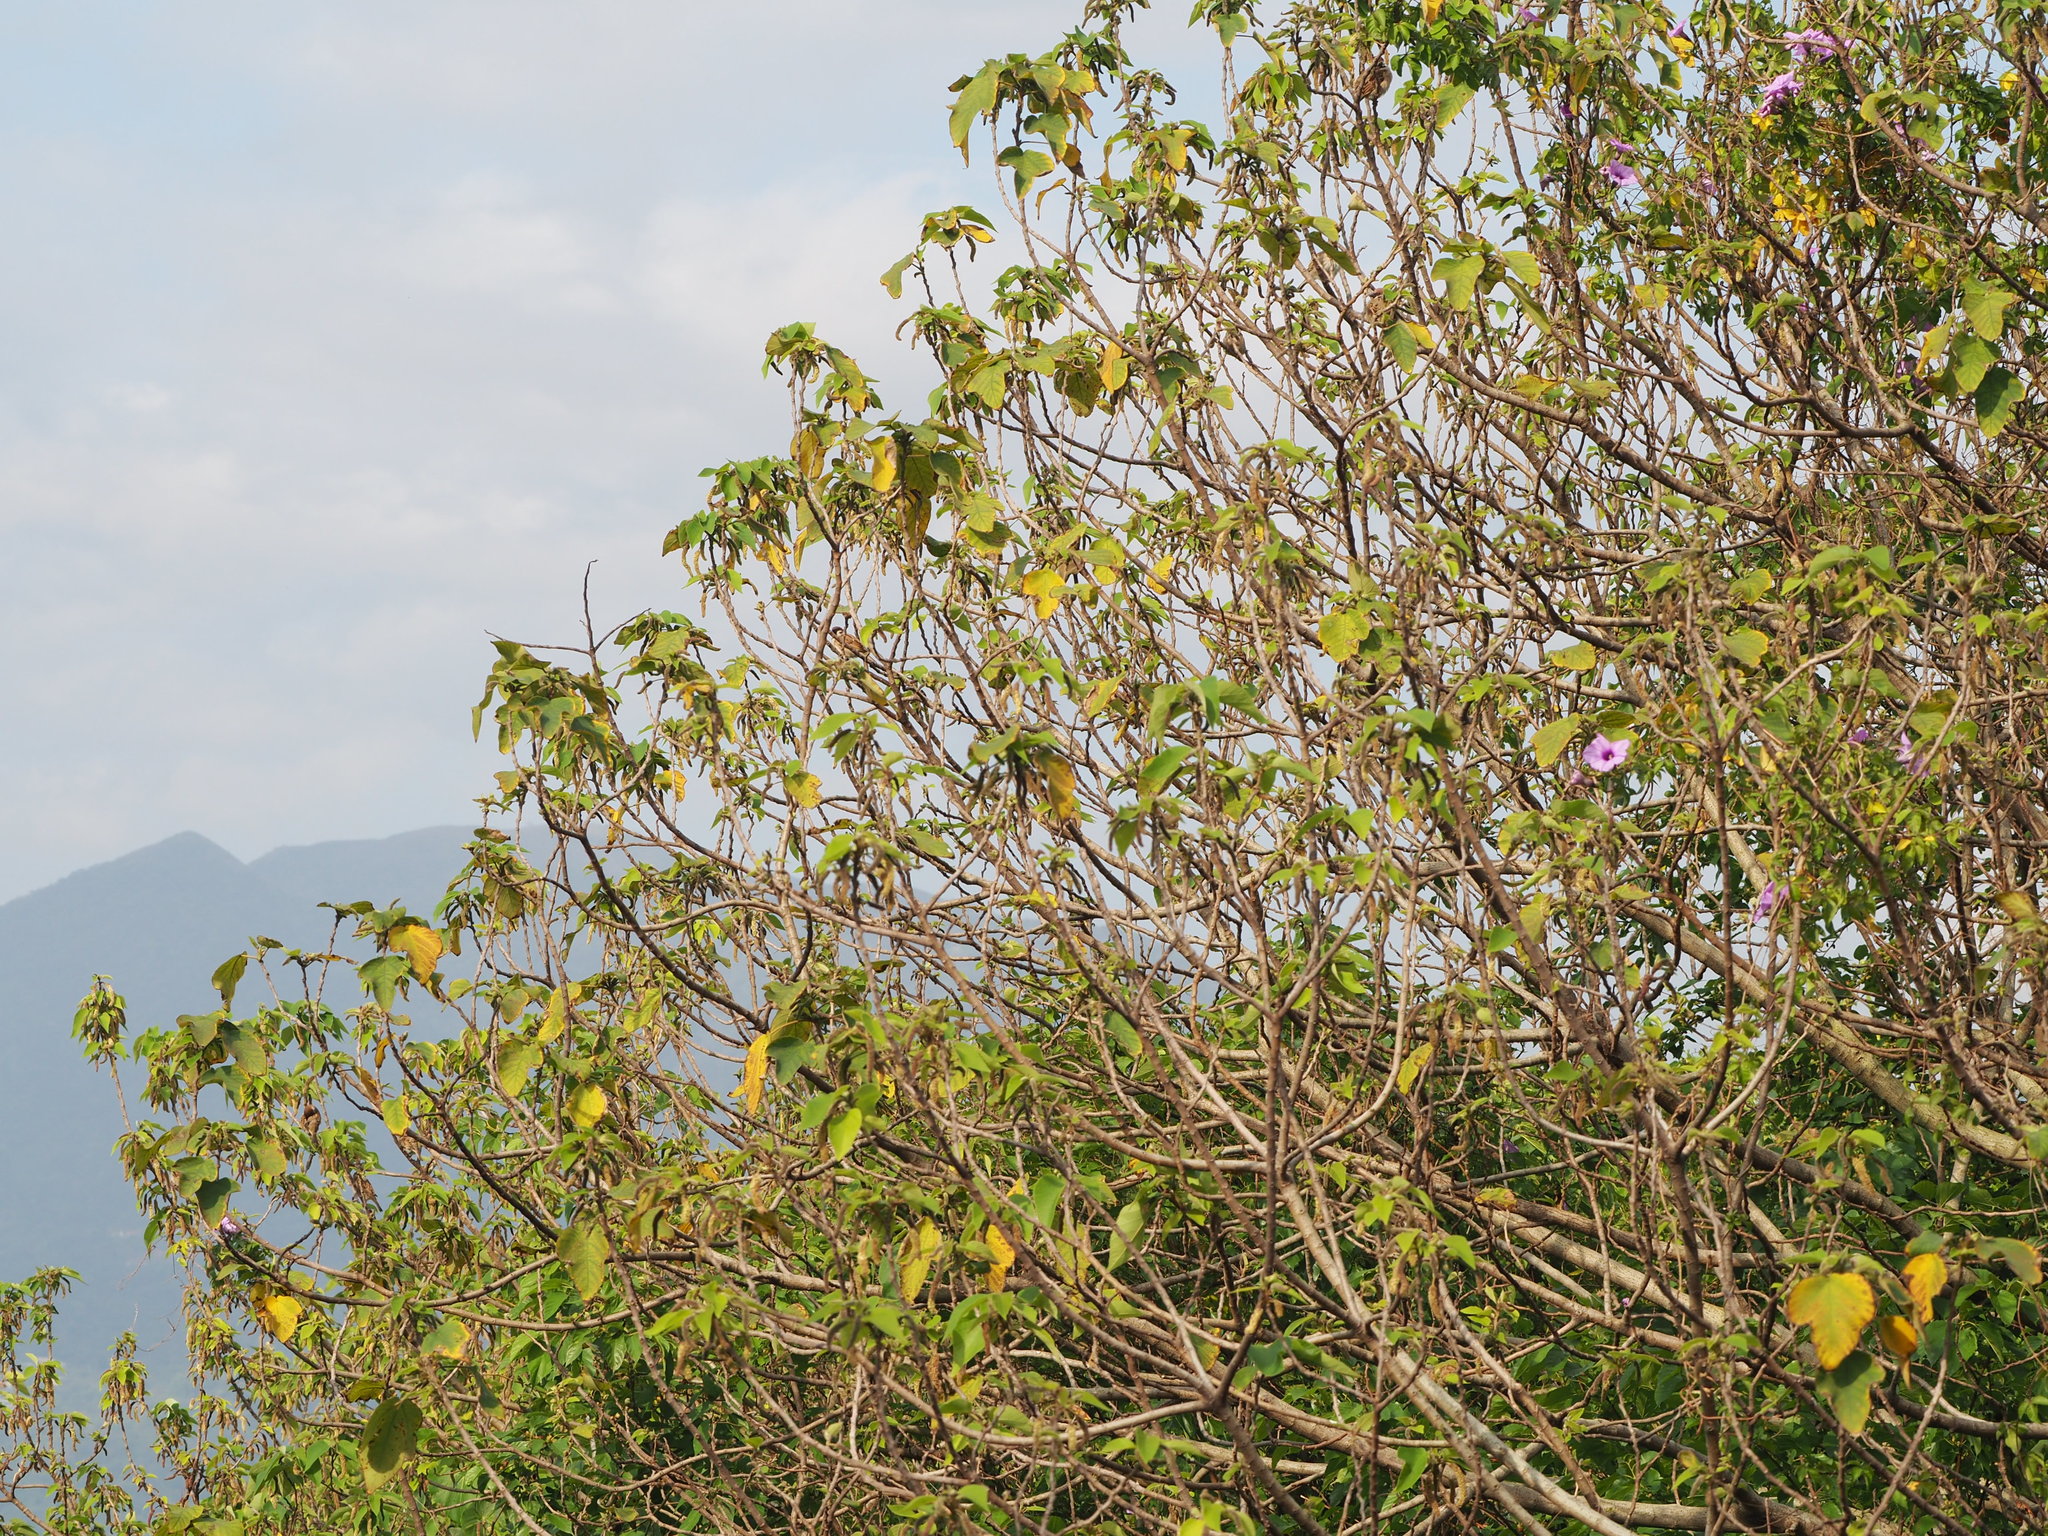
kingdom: Plantae
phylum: Tracheophyta
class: Magnoliopsida
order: Rosales
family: Moraceae
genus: Broussonetia
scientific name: Broussonetia papyrifera
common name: Paper mulberry
